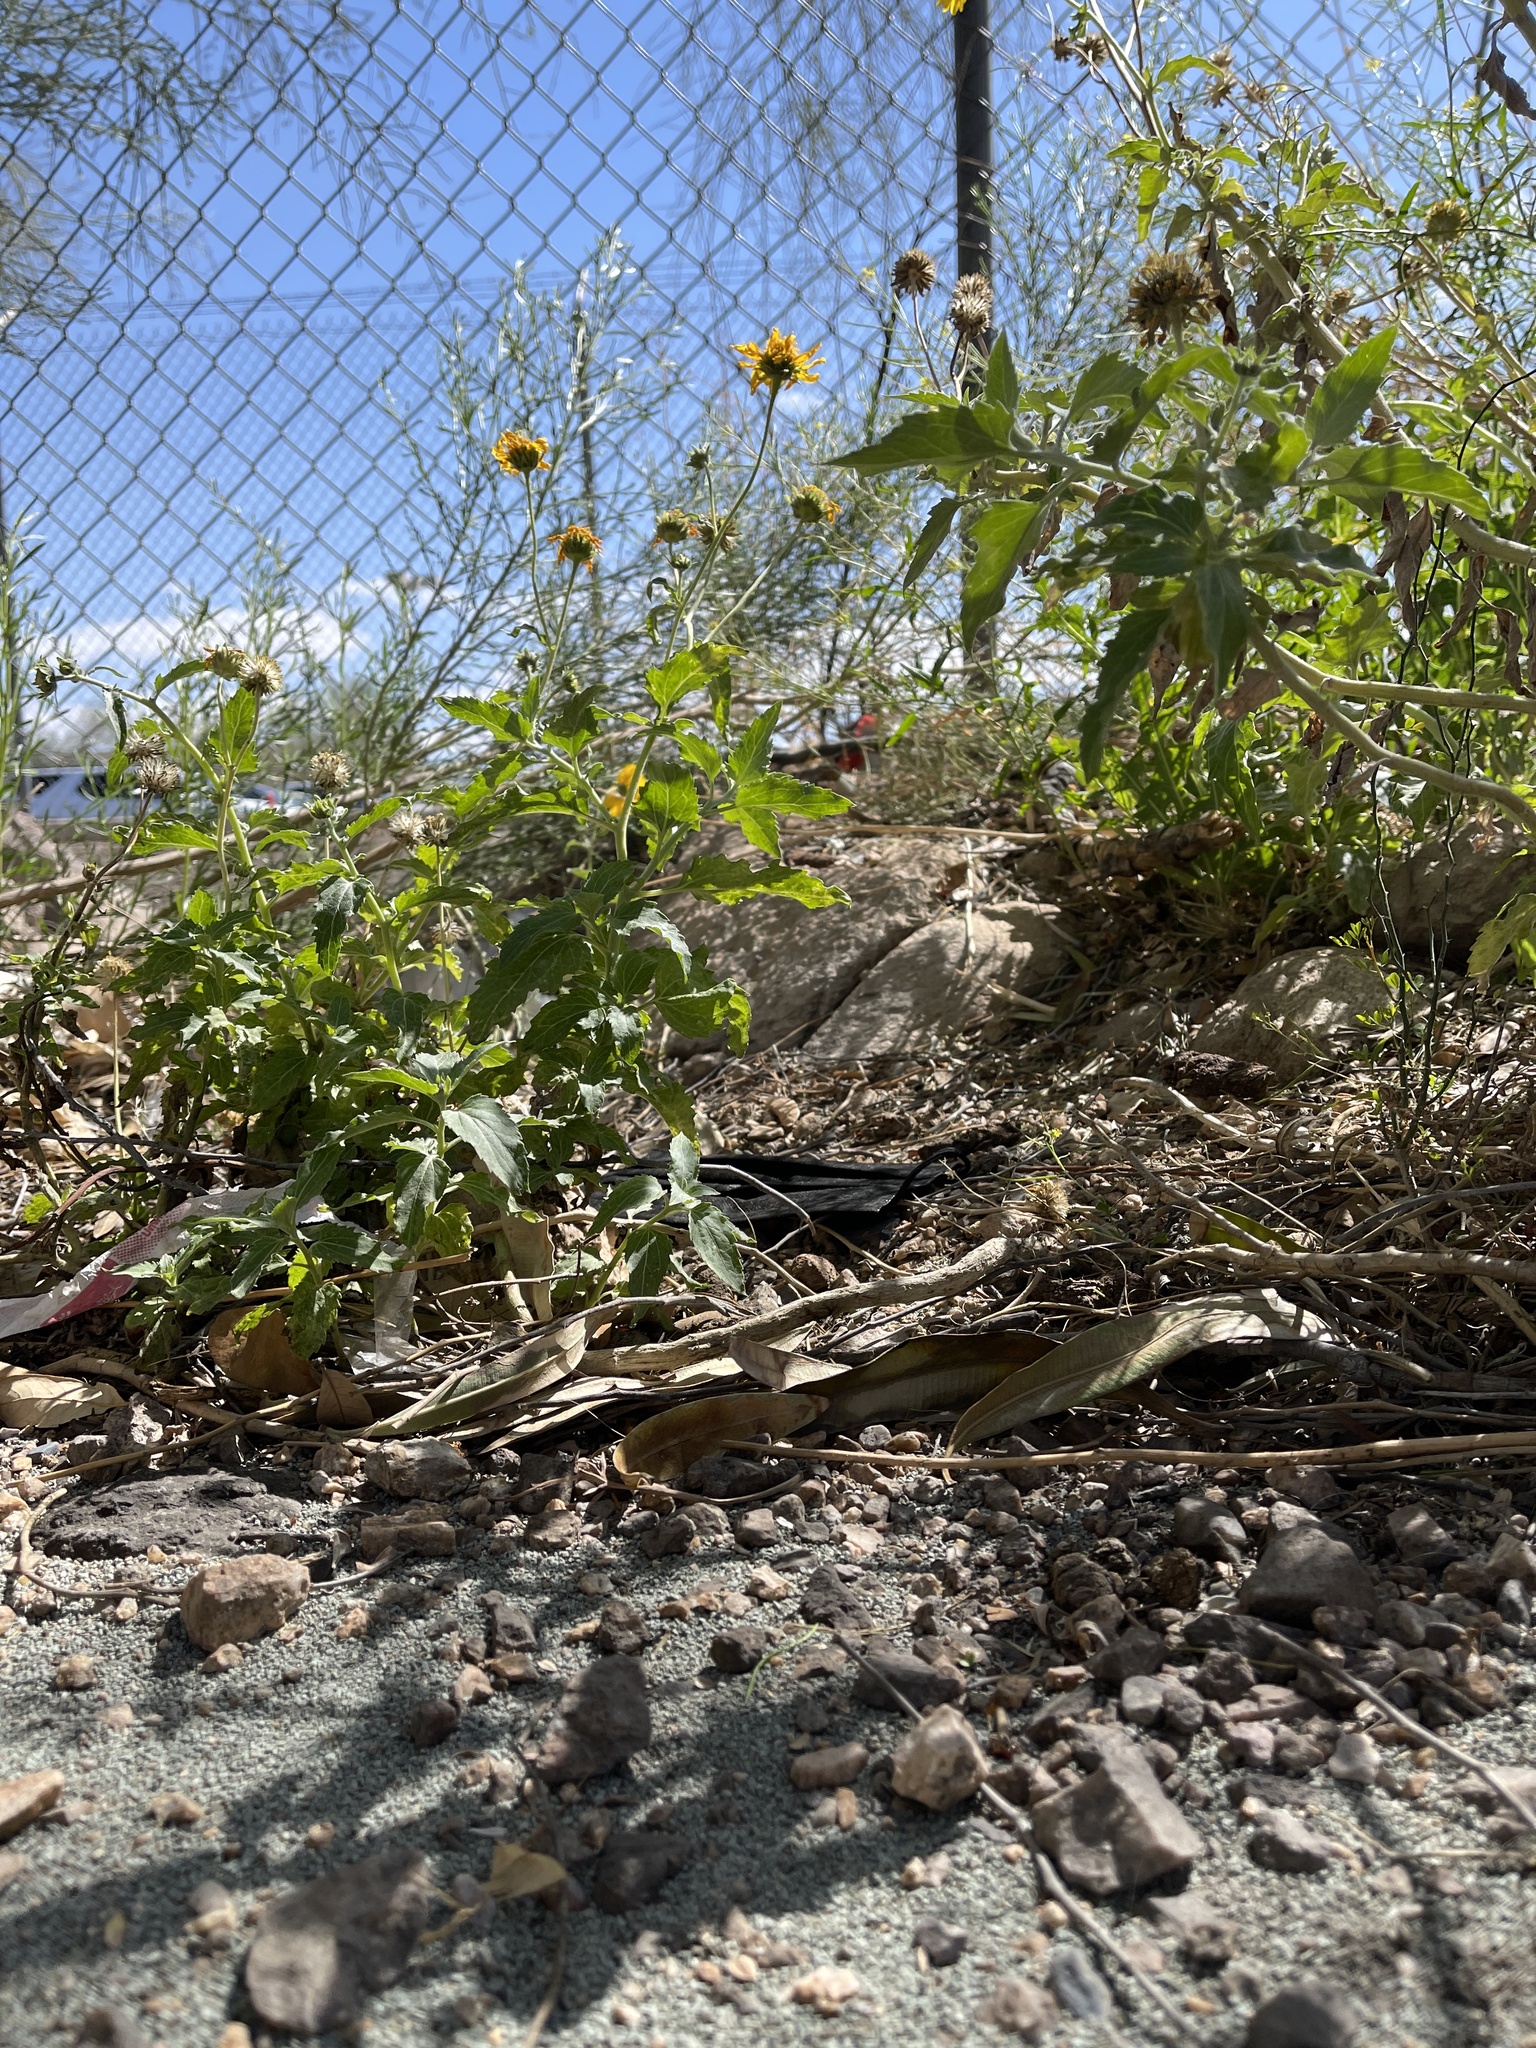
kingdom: Plantae
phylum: Tracheophyta
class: Magnoliopsida
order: Asterales
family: Asteraceae
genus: Verbesina
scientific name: Verbesina encelioides
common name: Golden crownbeard
